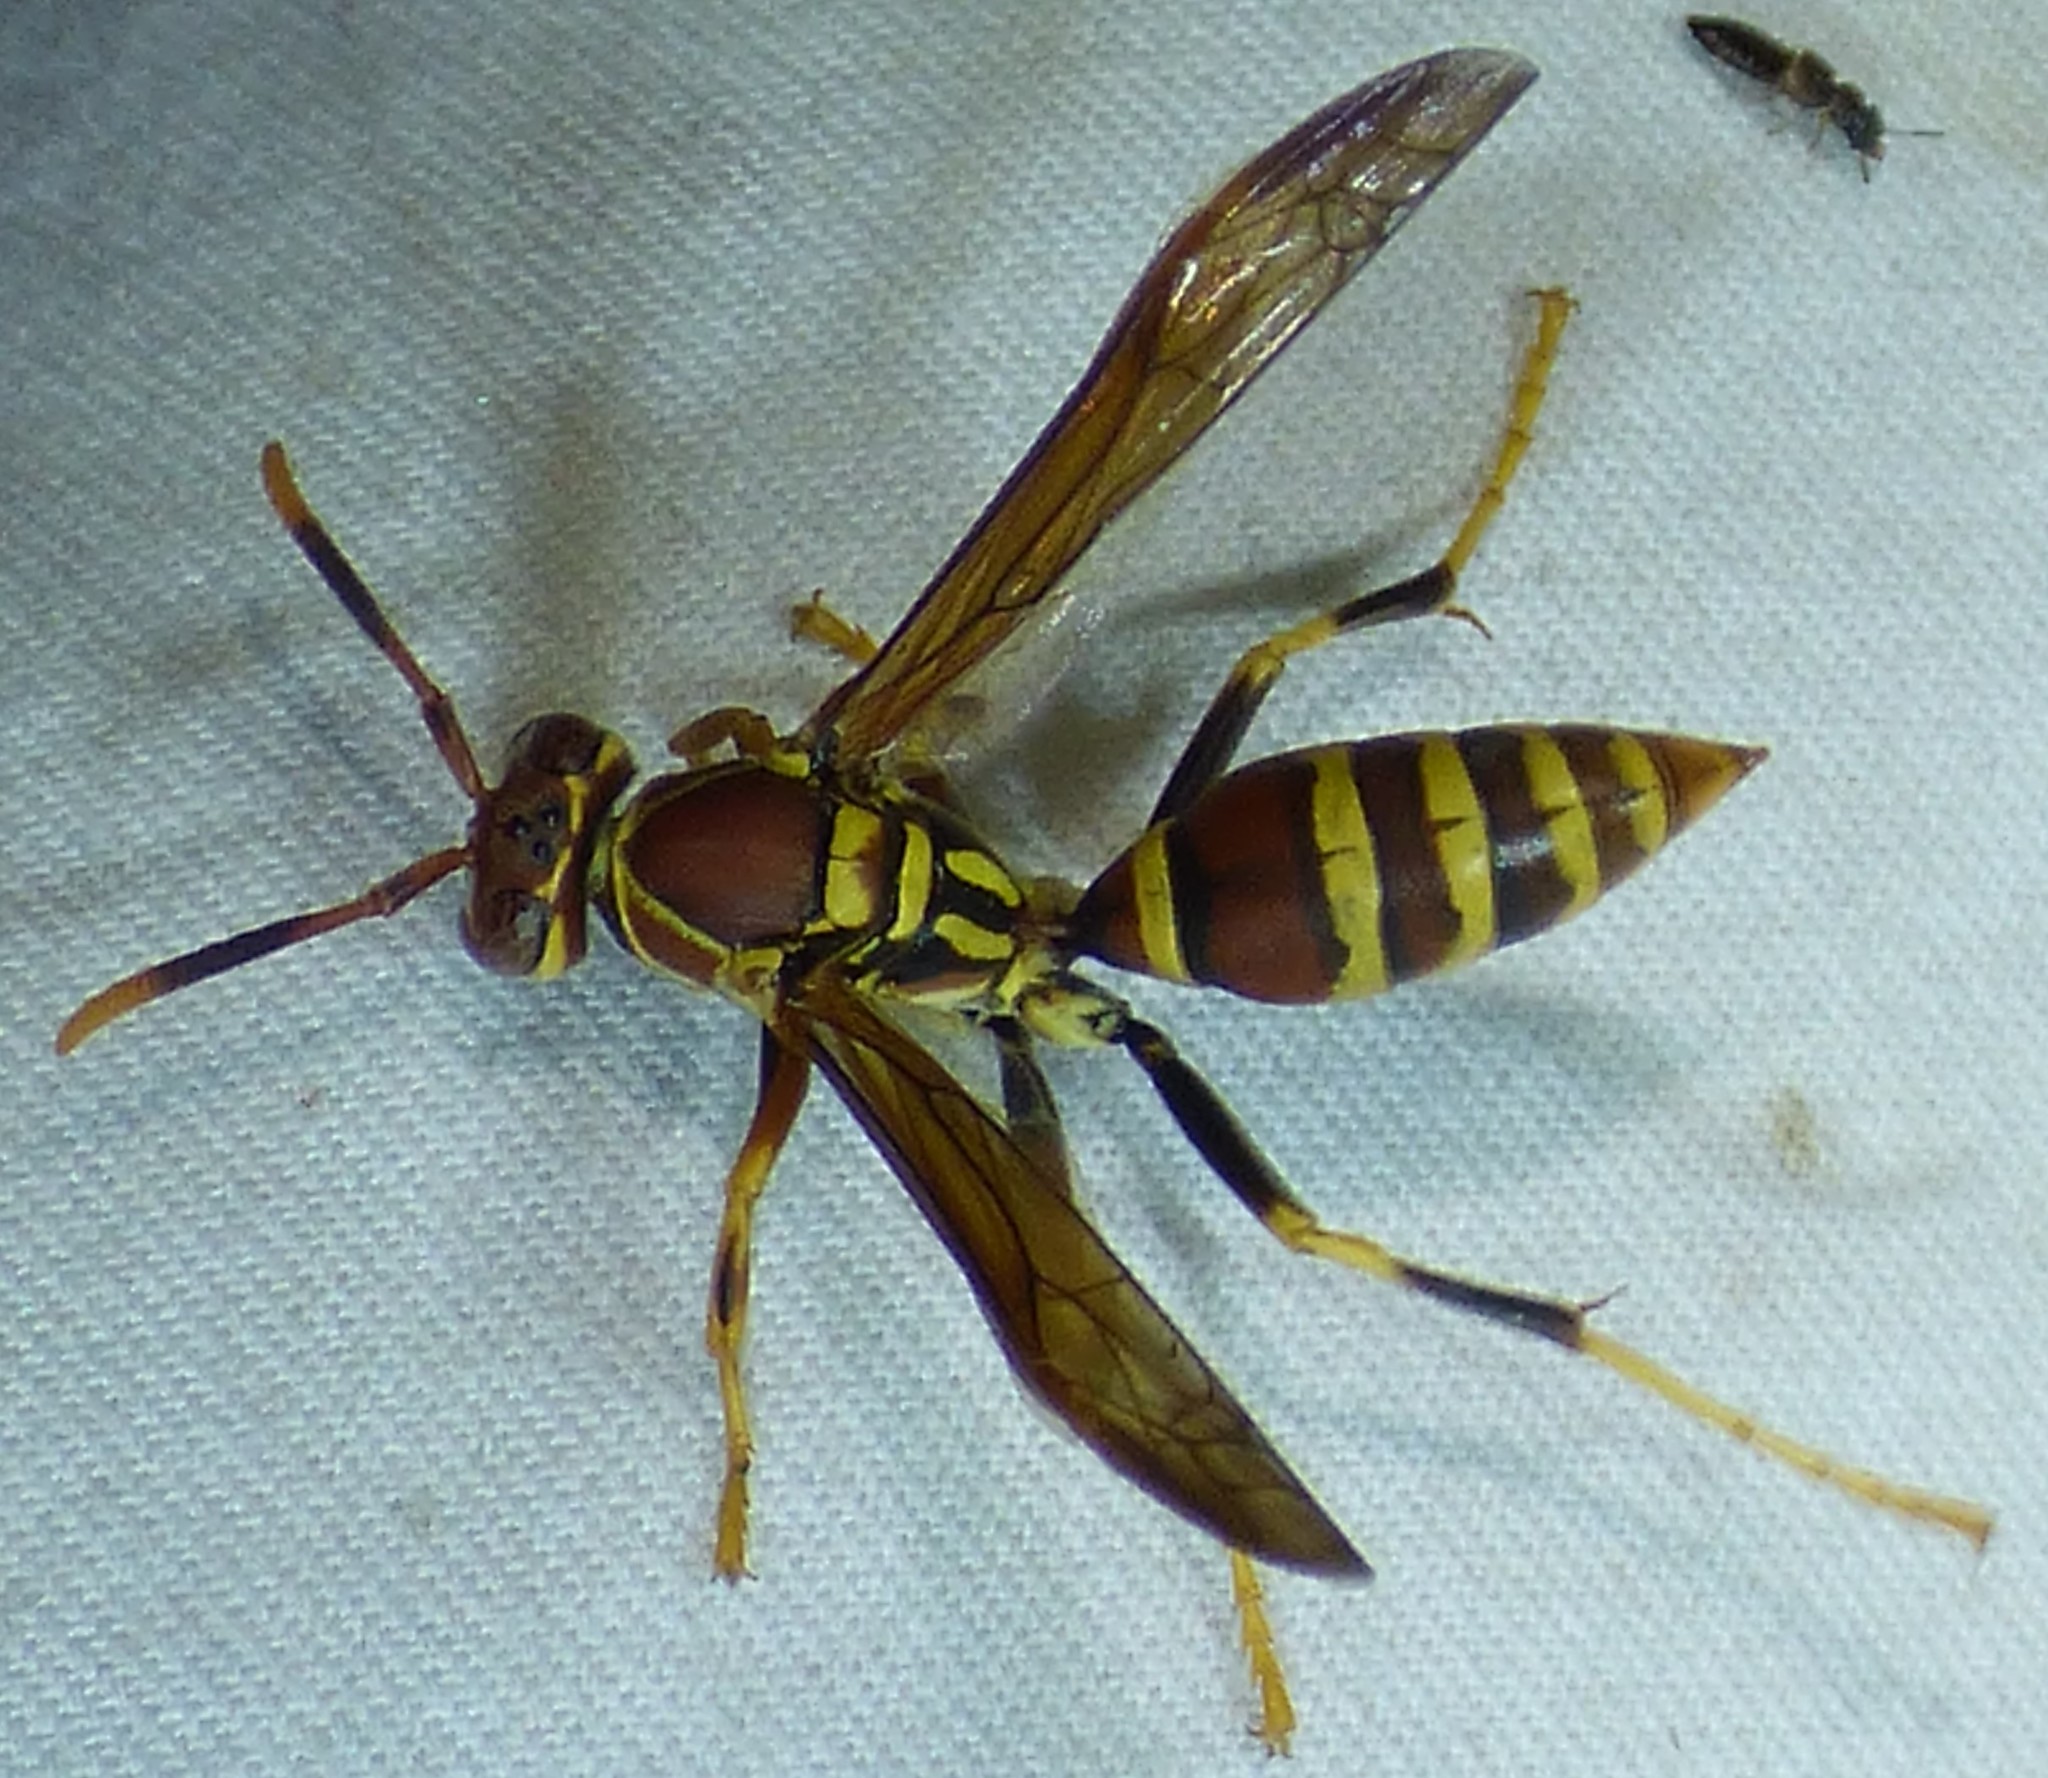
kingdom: Animalia
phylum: Arthropoda
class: Insecta
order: Hymenoptera
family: Eumenidae
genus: Polistes
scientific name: Polistes exclamans
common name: Paper wasp
